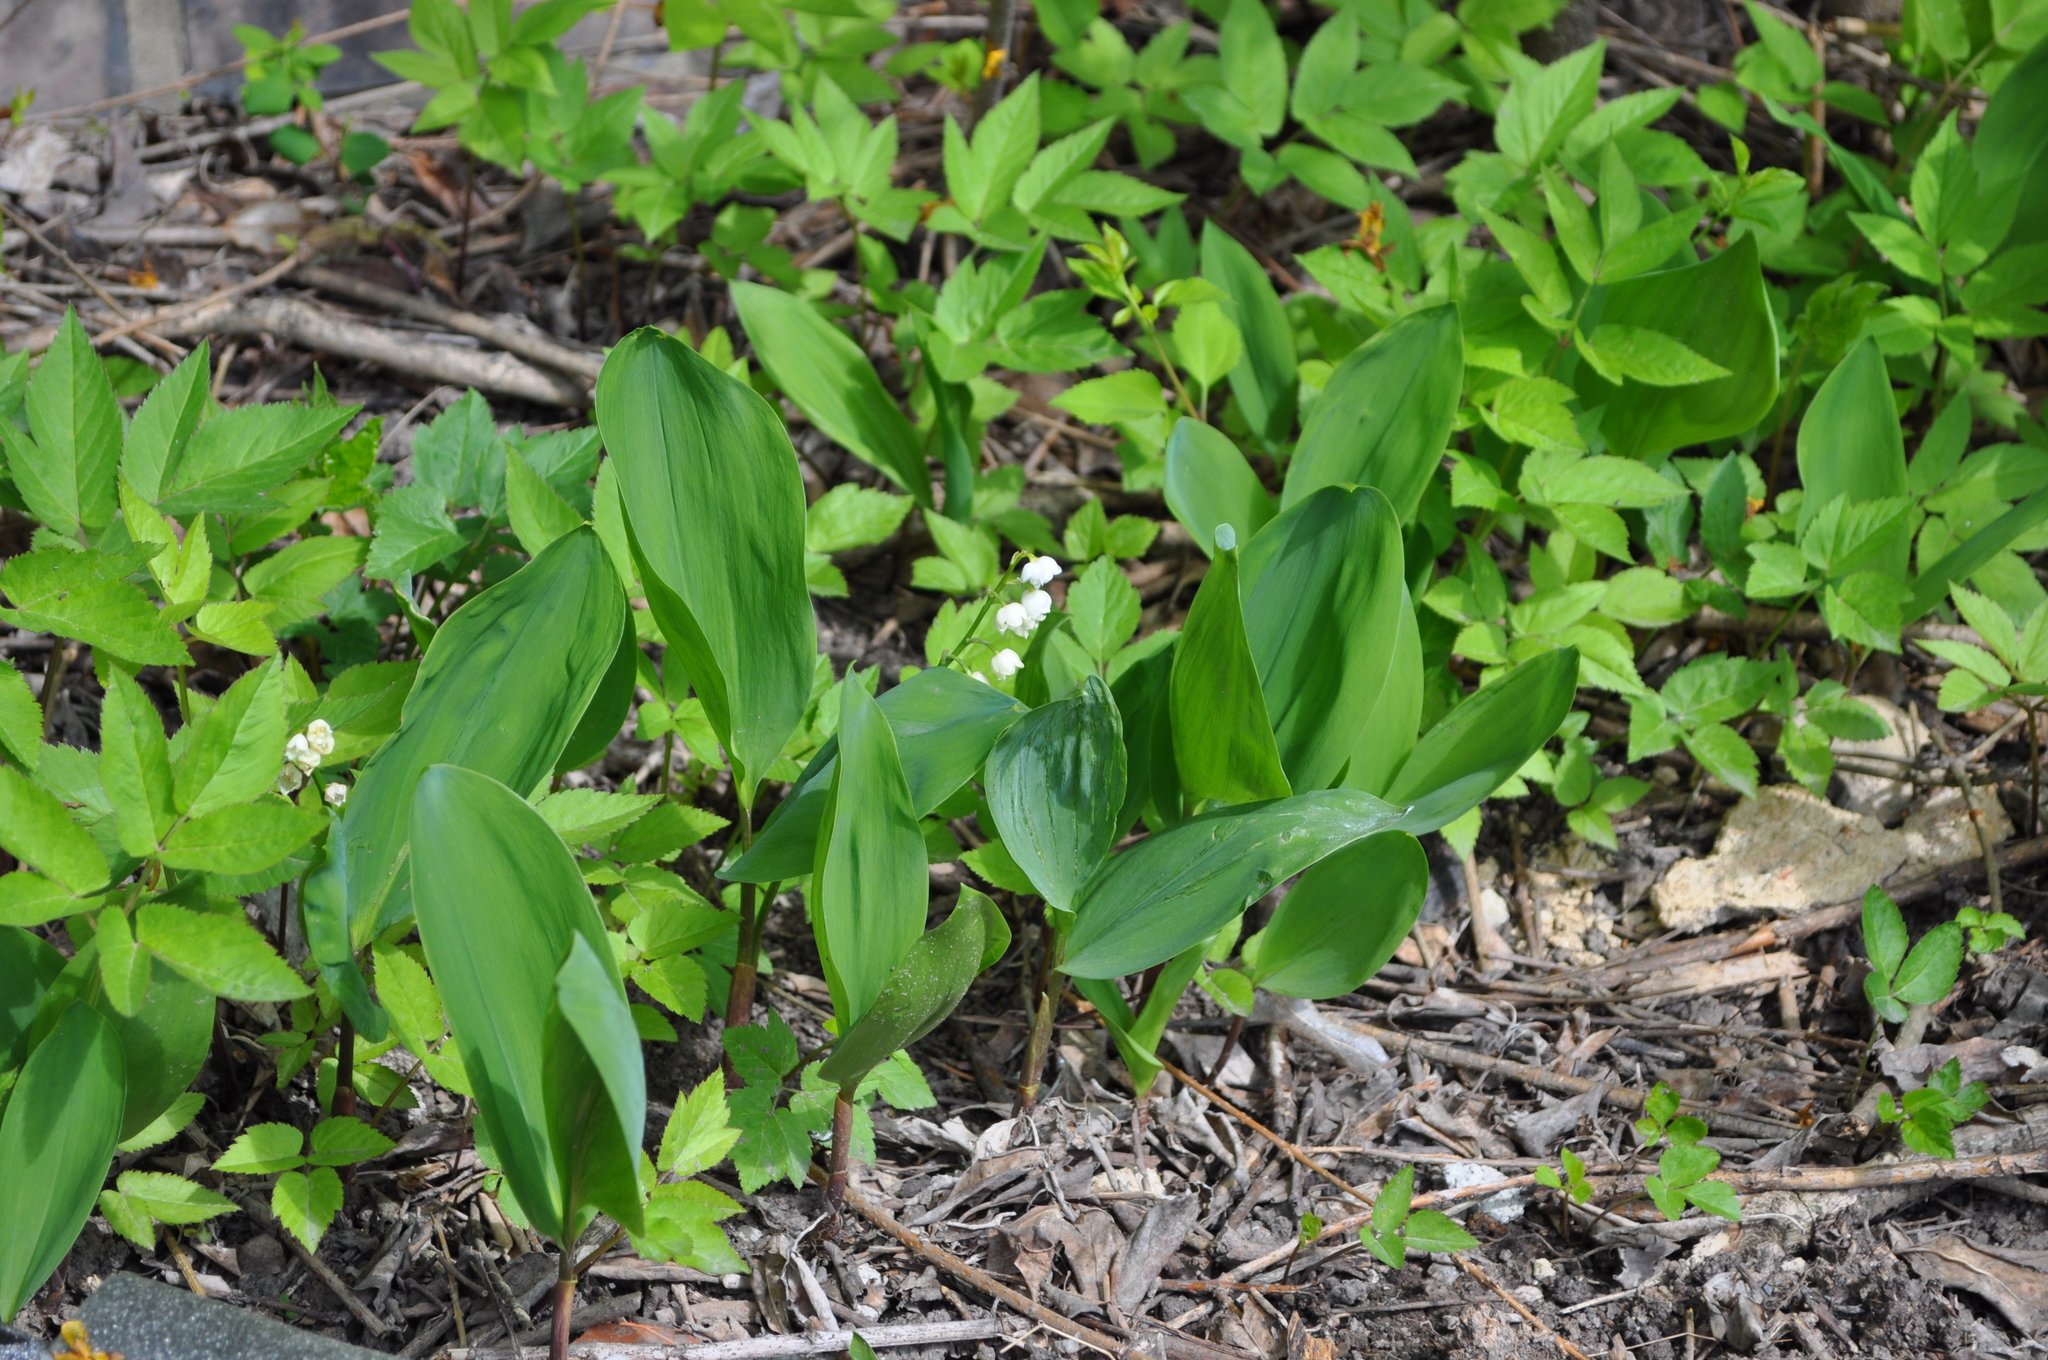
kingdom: Plantae
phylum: Tracheophyta
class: Liliopsida
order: Asparagales
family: Asparagaceae
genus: Convallaria
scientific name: Convallaria majalis
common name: Lily-of-the-valley
